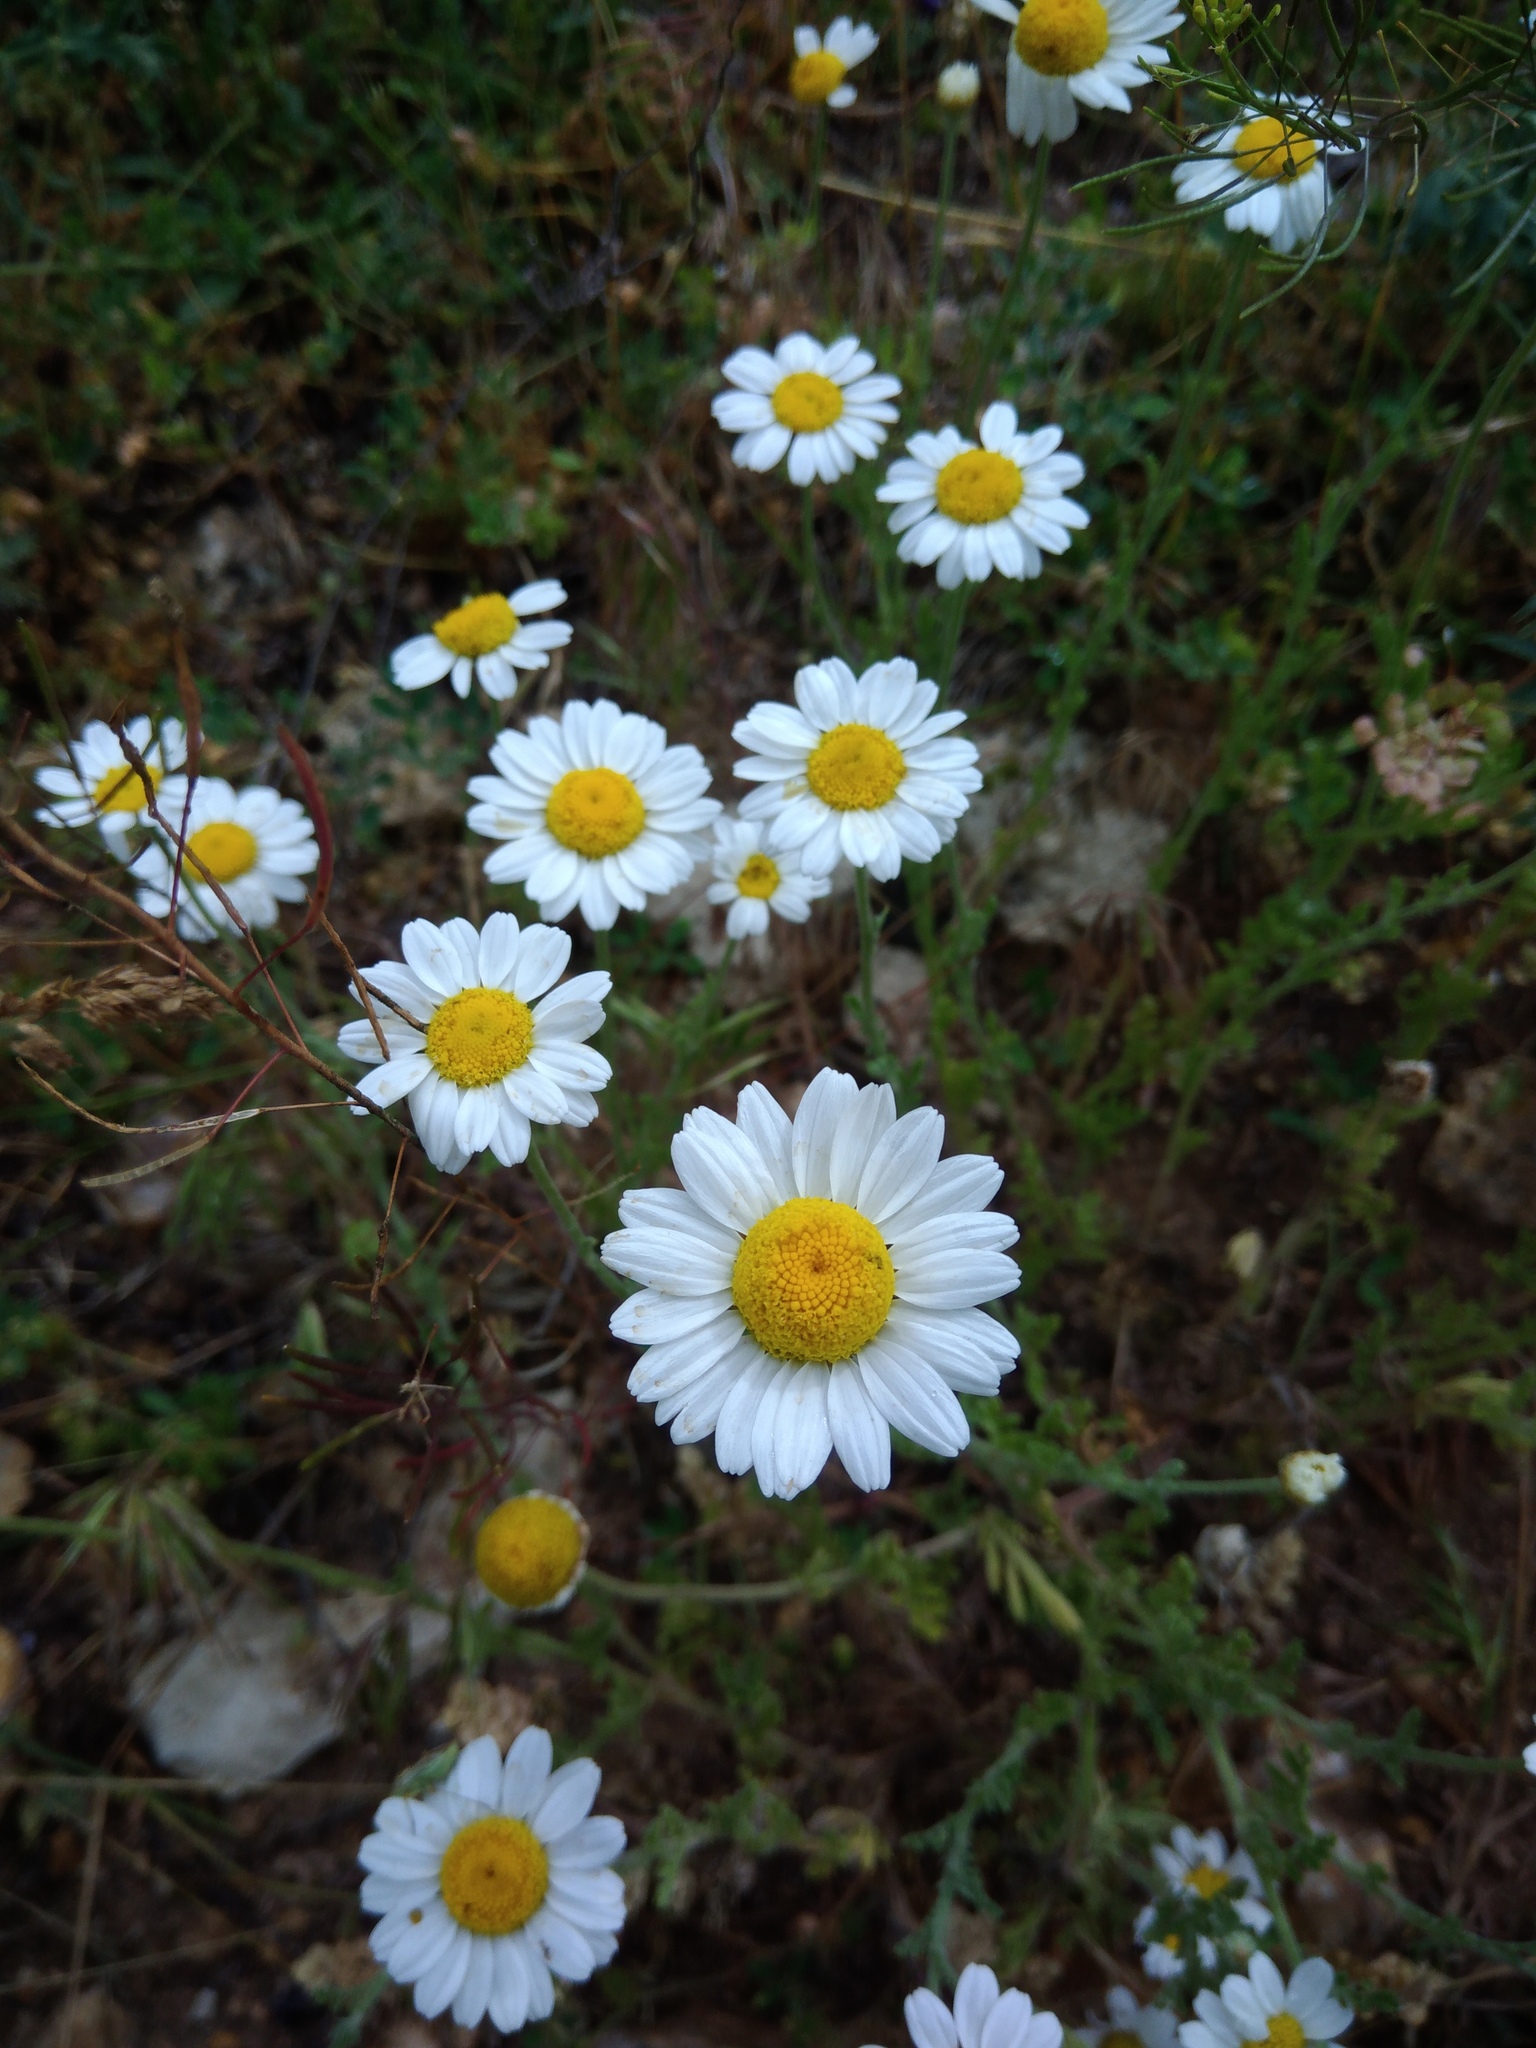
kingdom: Plantae
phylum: Tracheophyta
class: Magnoliopsida
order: Asterales
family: Asteraceae
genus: Anthemis
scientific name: Anthemis ruthenica
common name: Eastern chamomile
